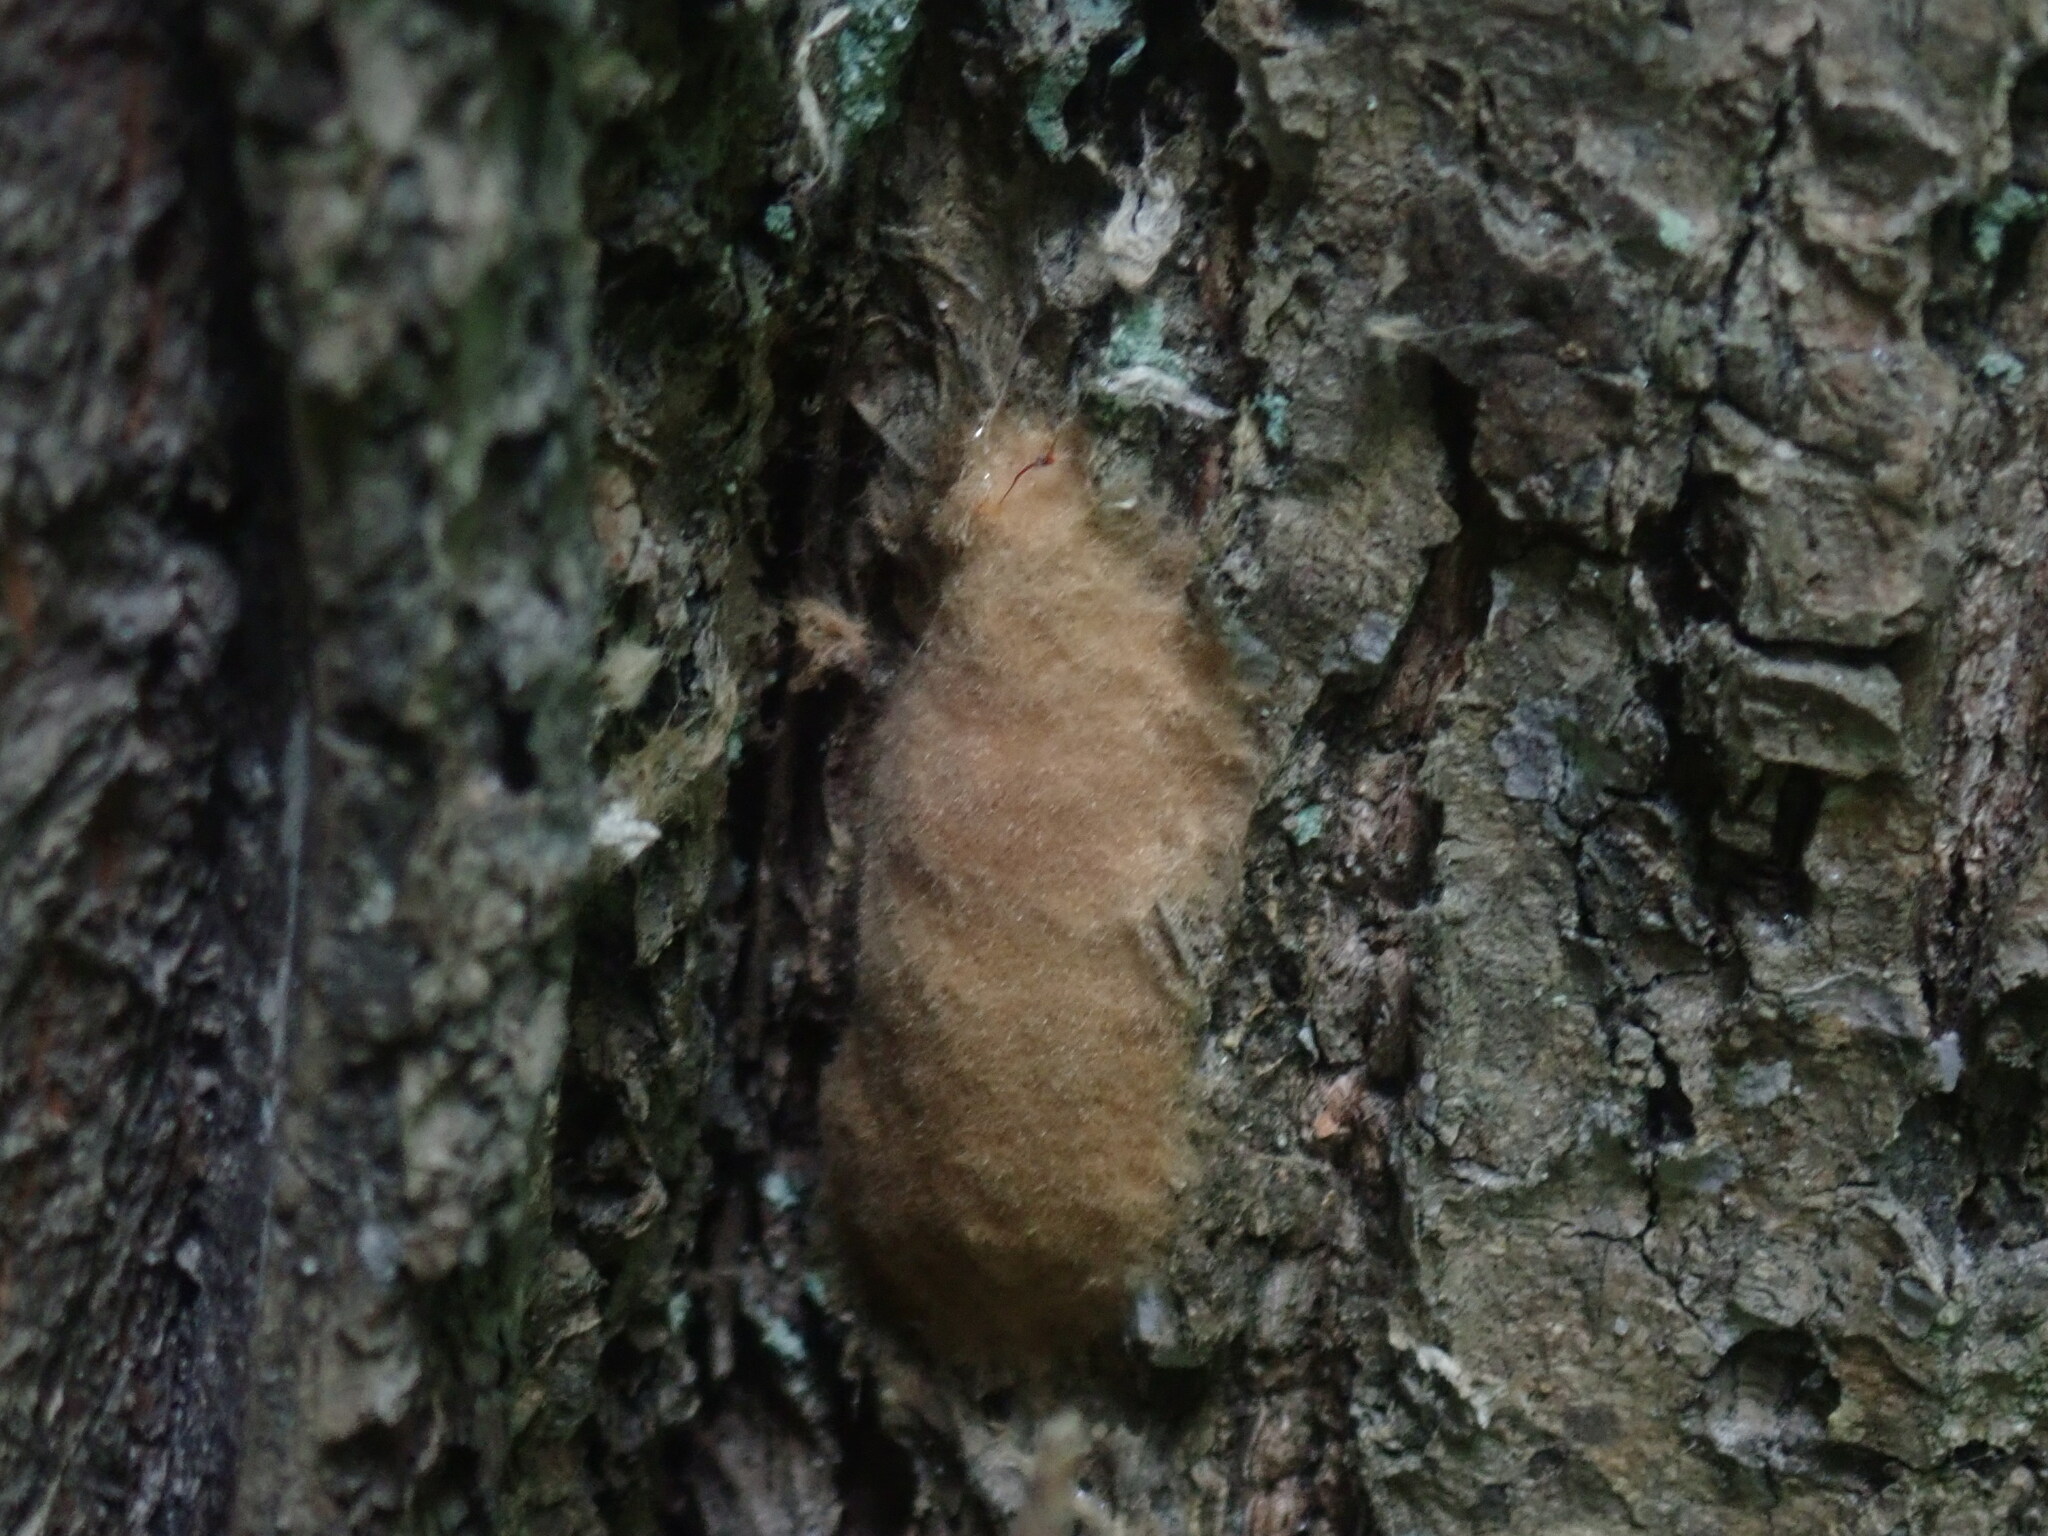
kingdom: Animalia
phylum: Arthropoda
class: Insecta
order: Lepidoptera
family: Erebidae
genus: Lymantria
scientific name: Lymantria dispar
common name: Gypsy moth
